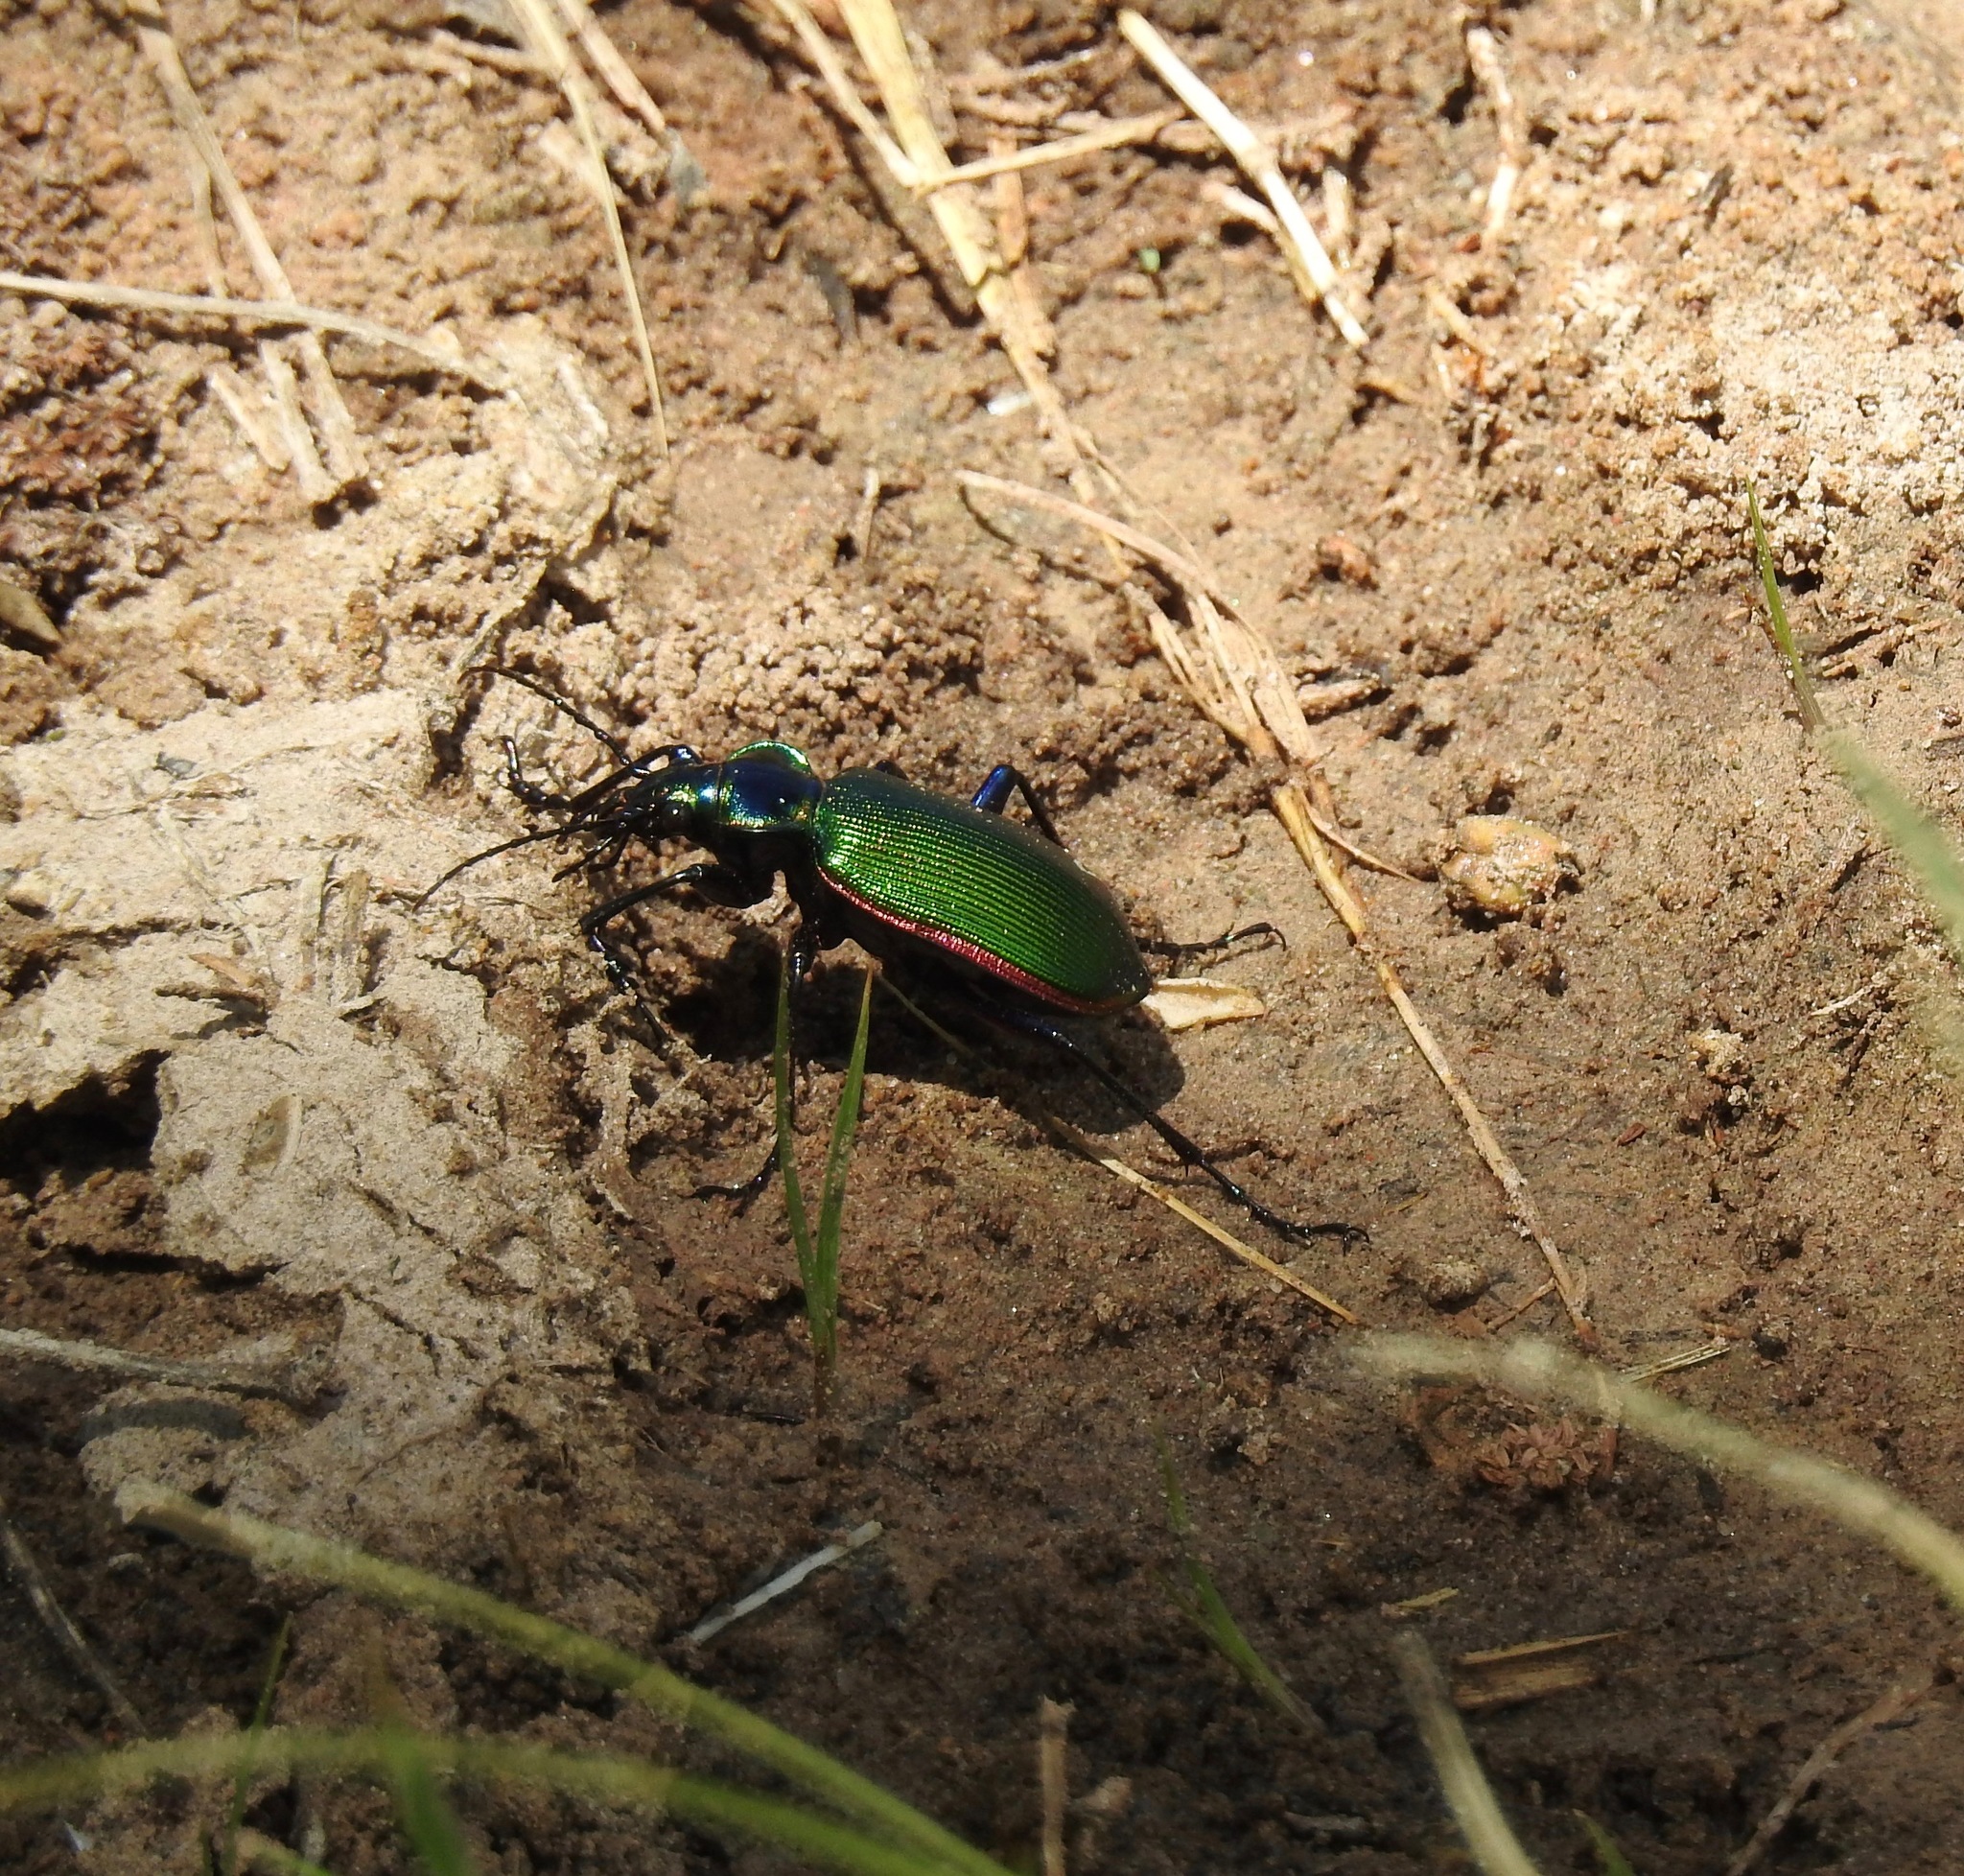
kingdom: Animalia
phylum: Arthropoda
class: Insecta
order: Coleoptera
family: Carabidae
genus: Calosoma
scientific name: Calosoma scrutator
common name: Fiery searcher beetle
